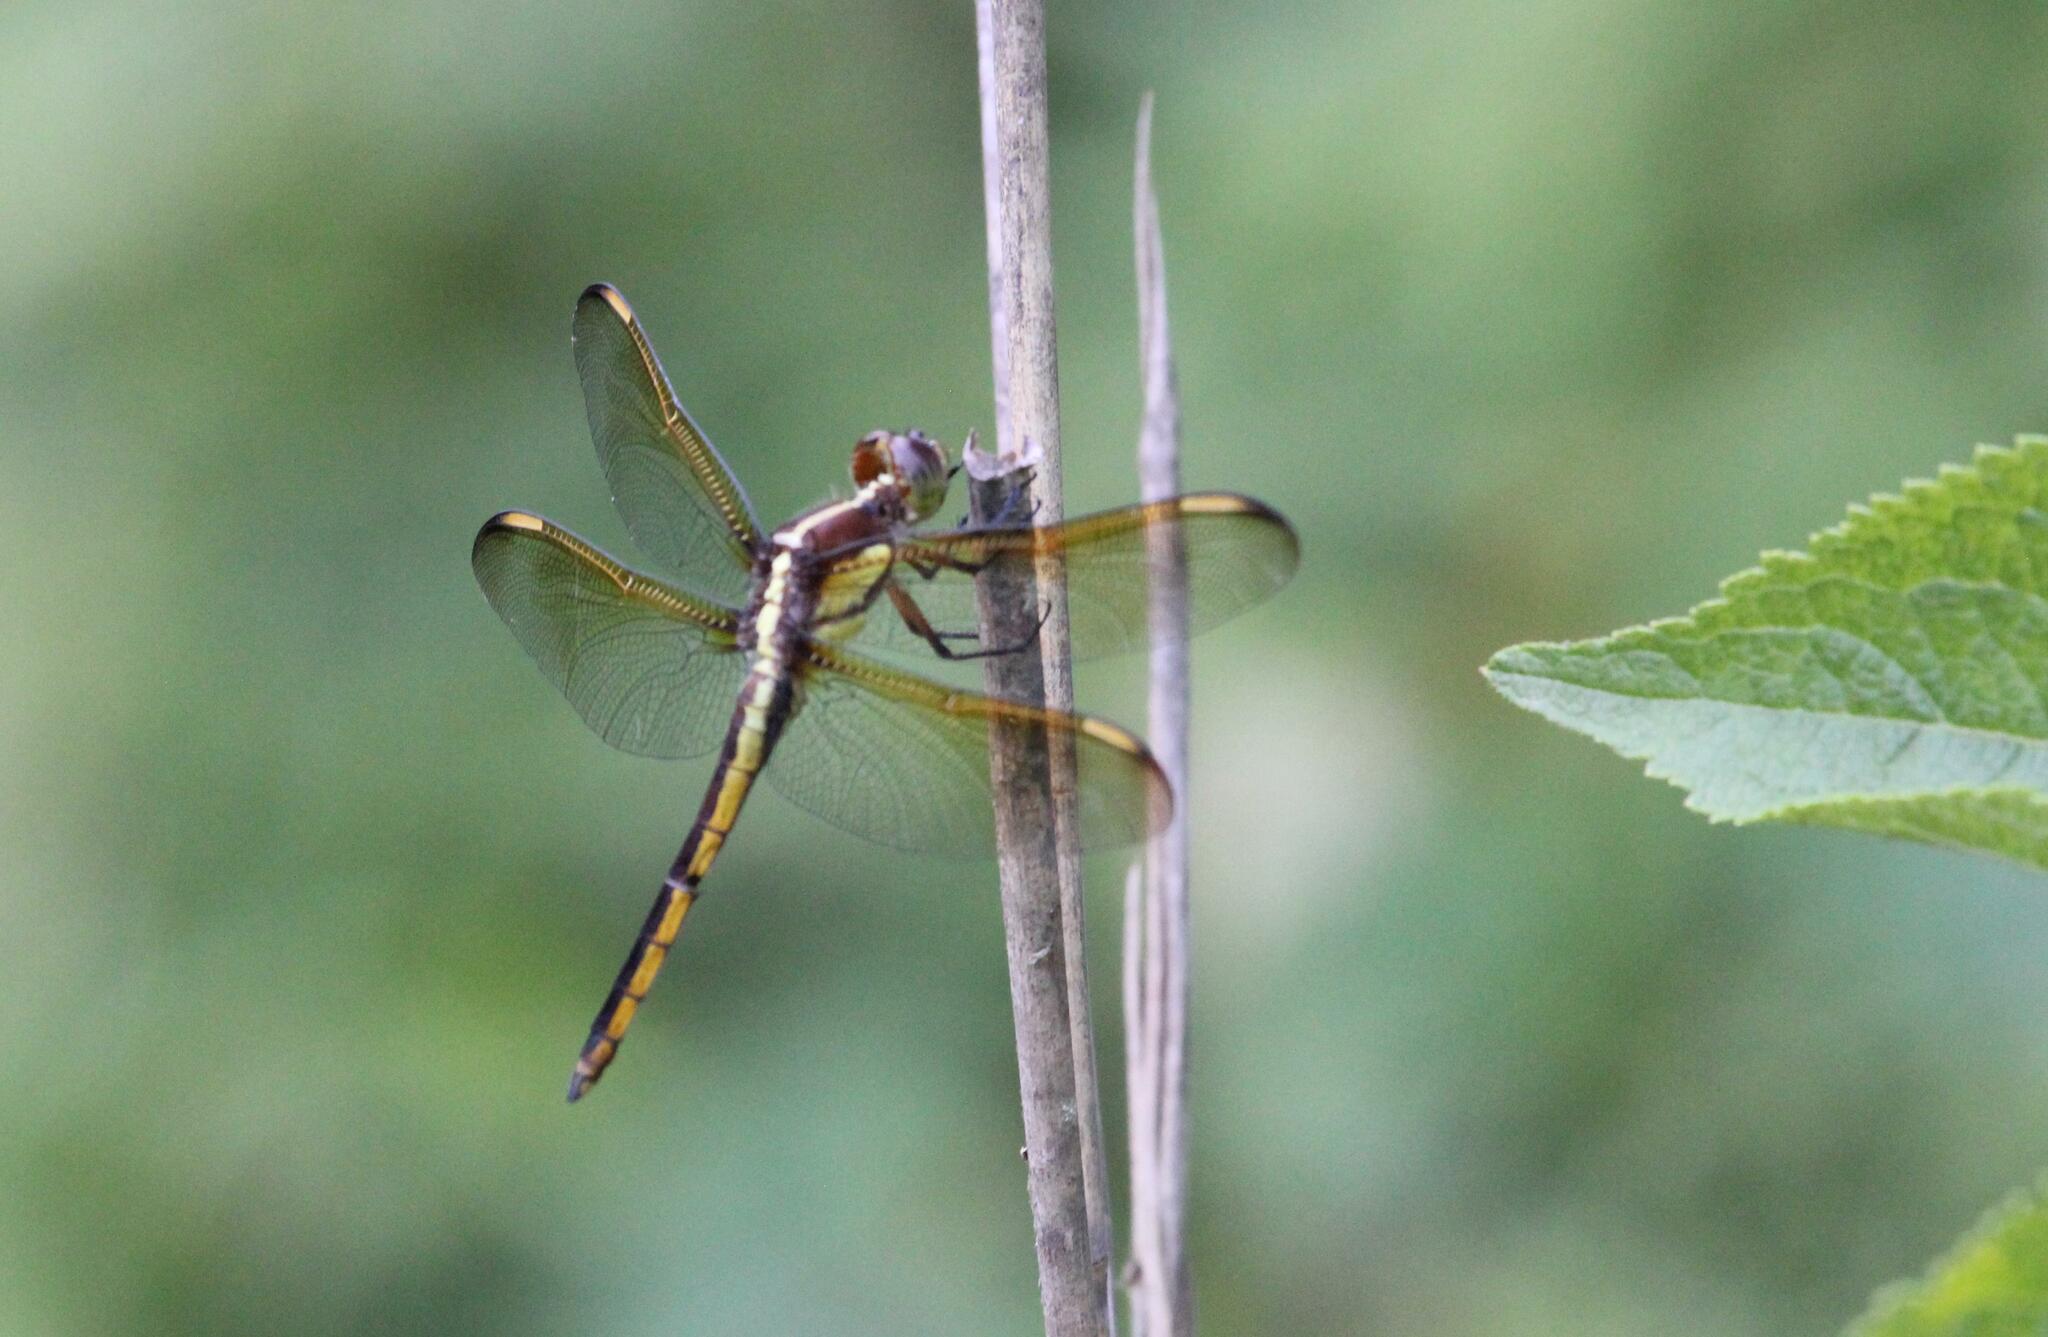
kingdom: Animalia
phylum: Arthropoda
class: Insecta
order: Odonata
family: Libellulidae
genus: Libellula
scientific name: Libellula flavida
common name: Yellow-sided skimmer
